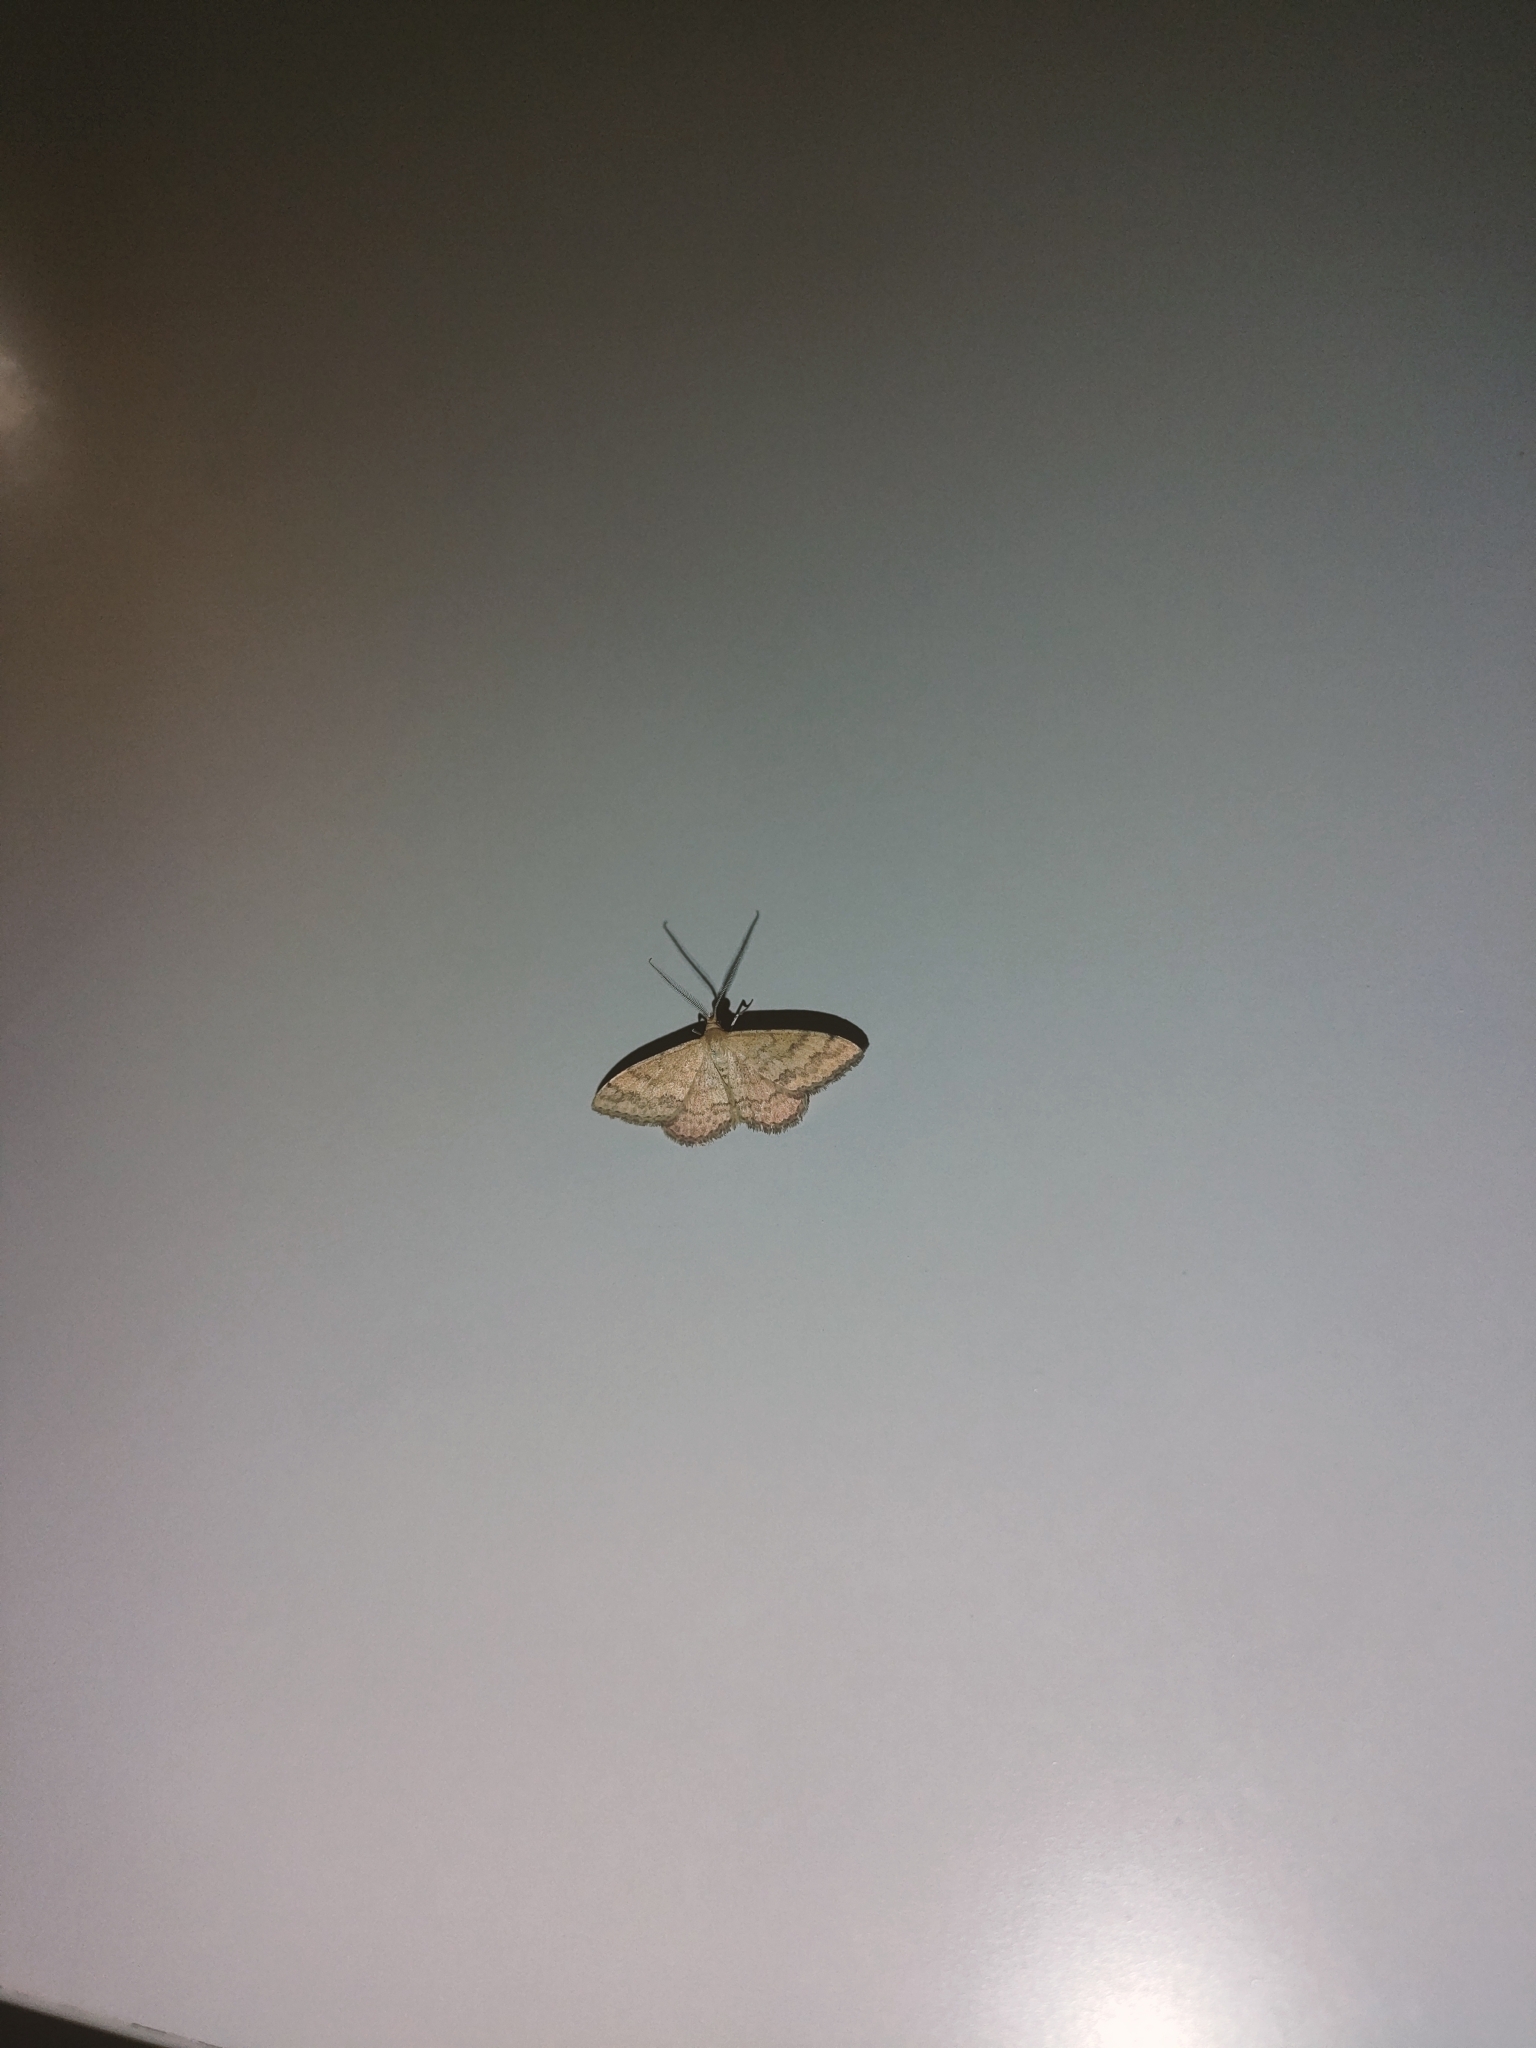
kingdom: Animalia
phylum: Arthropoda
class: Insecta
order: Lepidoptera
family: Geometridae
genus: Scopula
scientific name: Scopula rubraria
